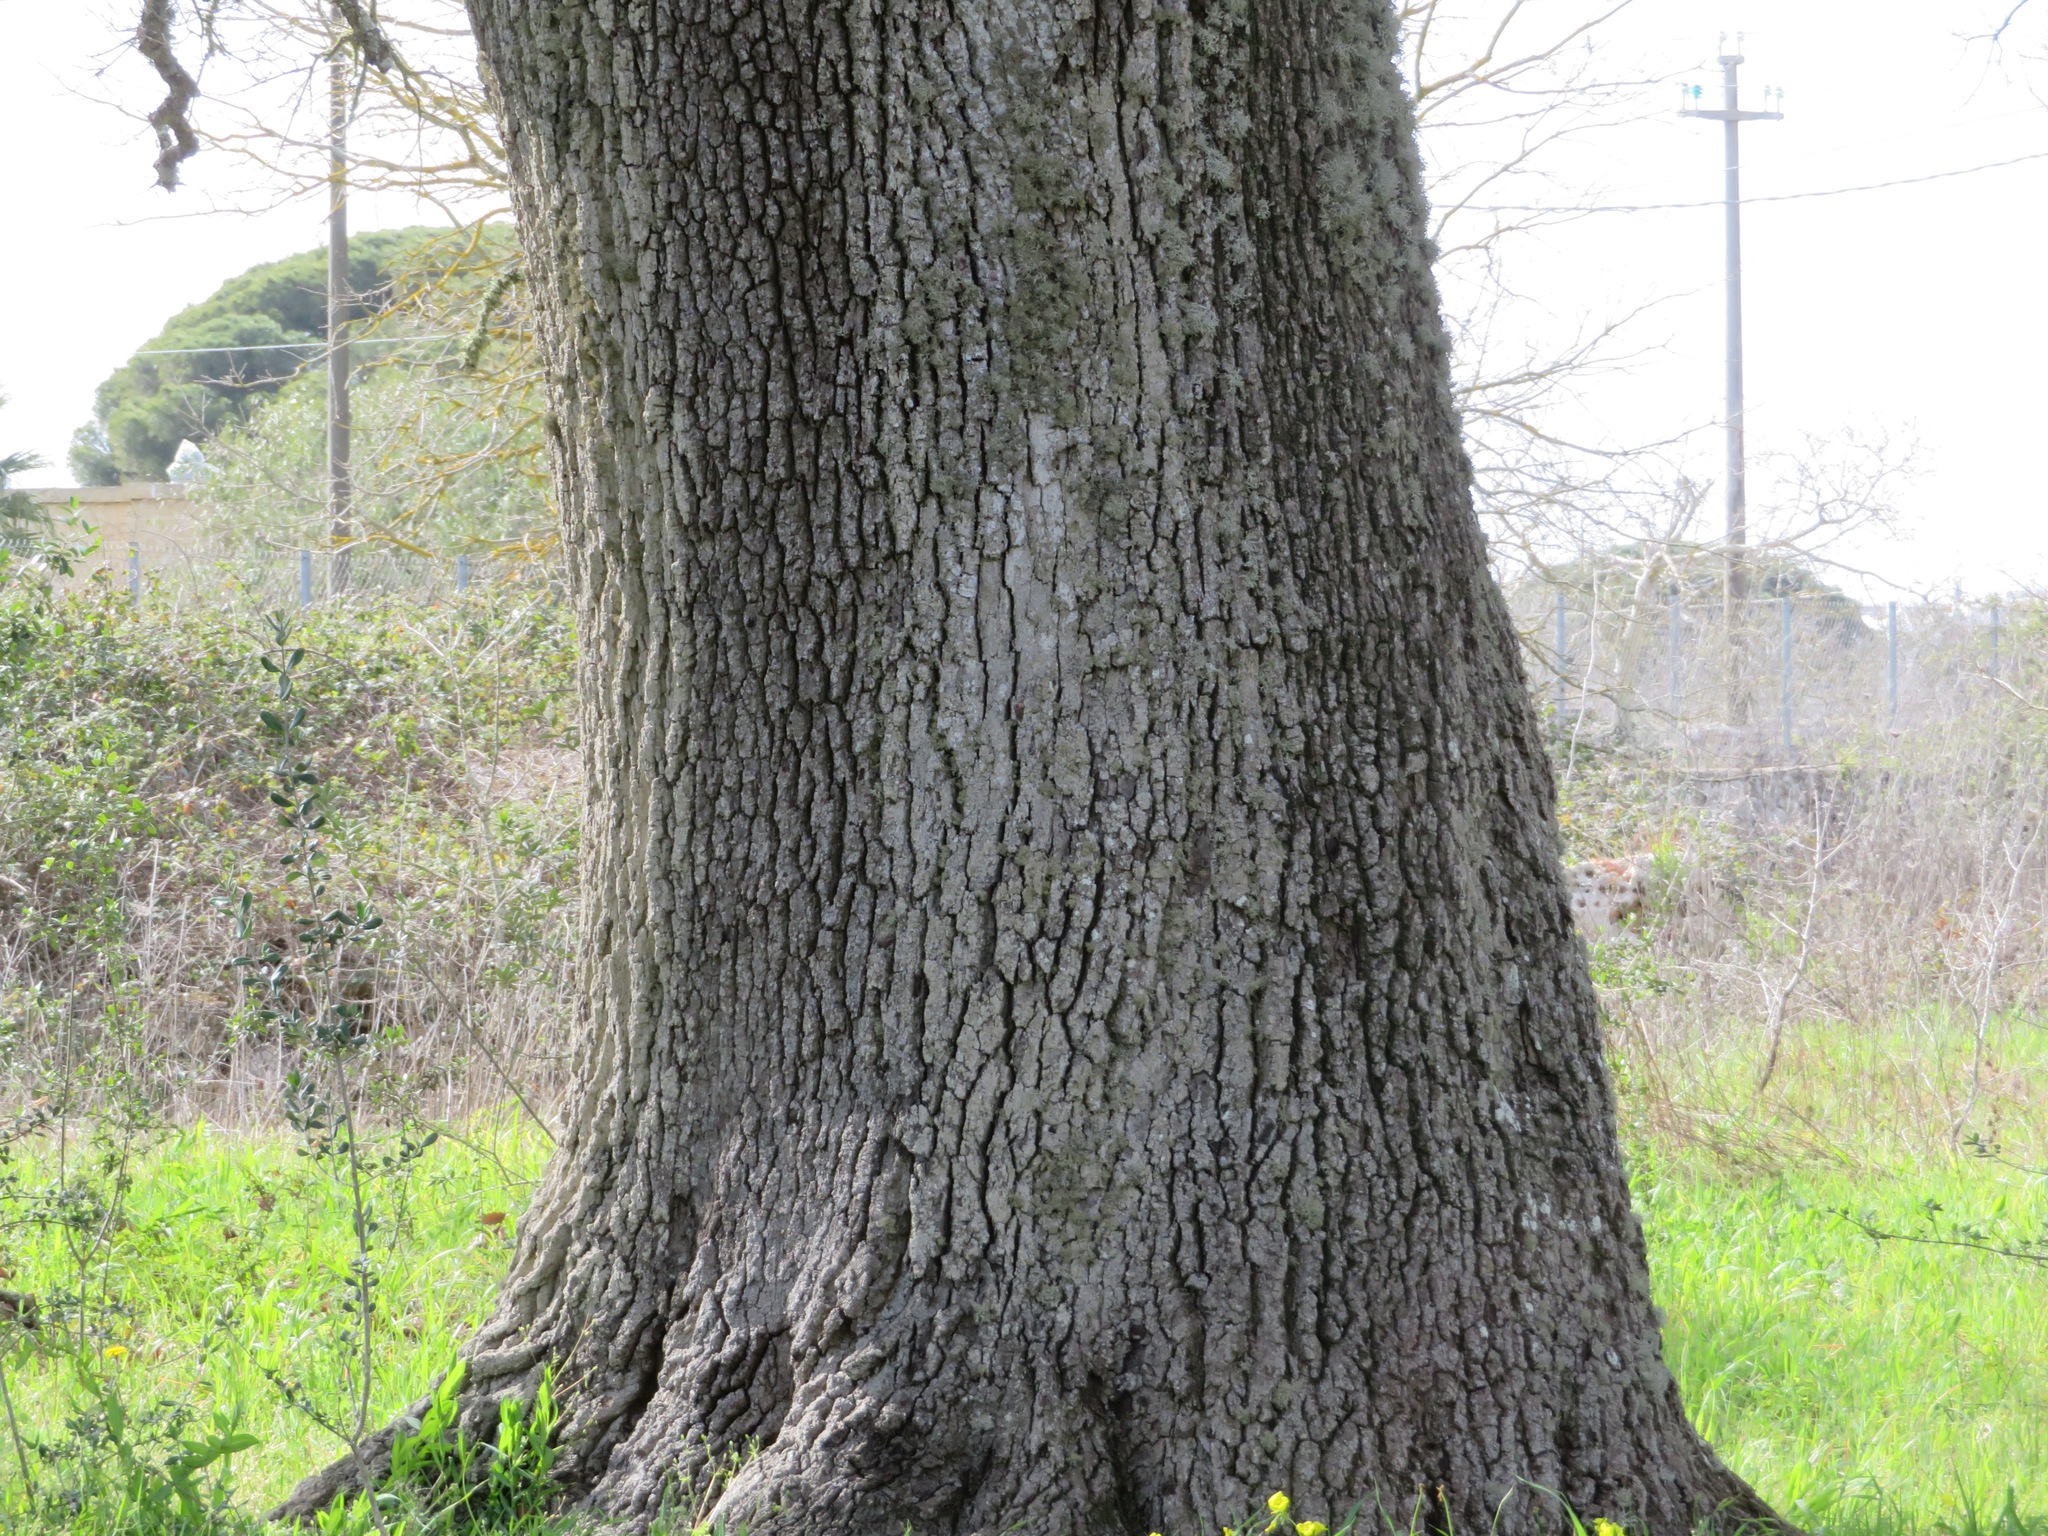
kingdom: Plantae
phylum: Tracheophyta
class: Magnoliopsida
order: Fagales
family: Fagaceae
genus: Quercus
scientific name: Quercus ithaburensis
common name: Tabor oak
